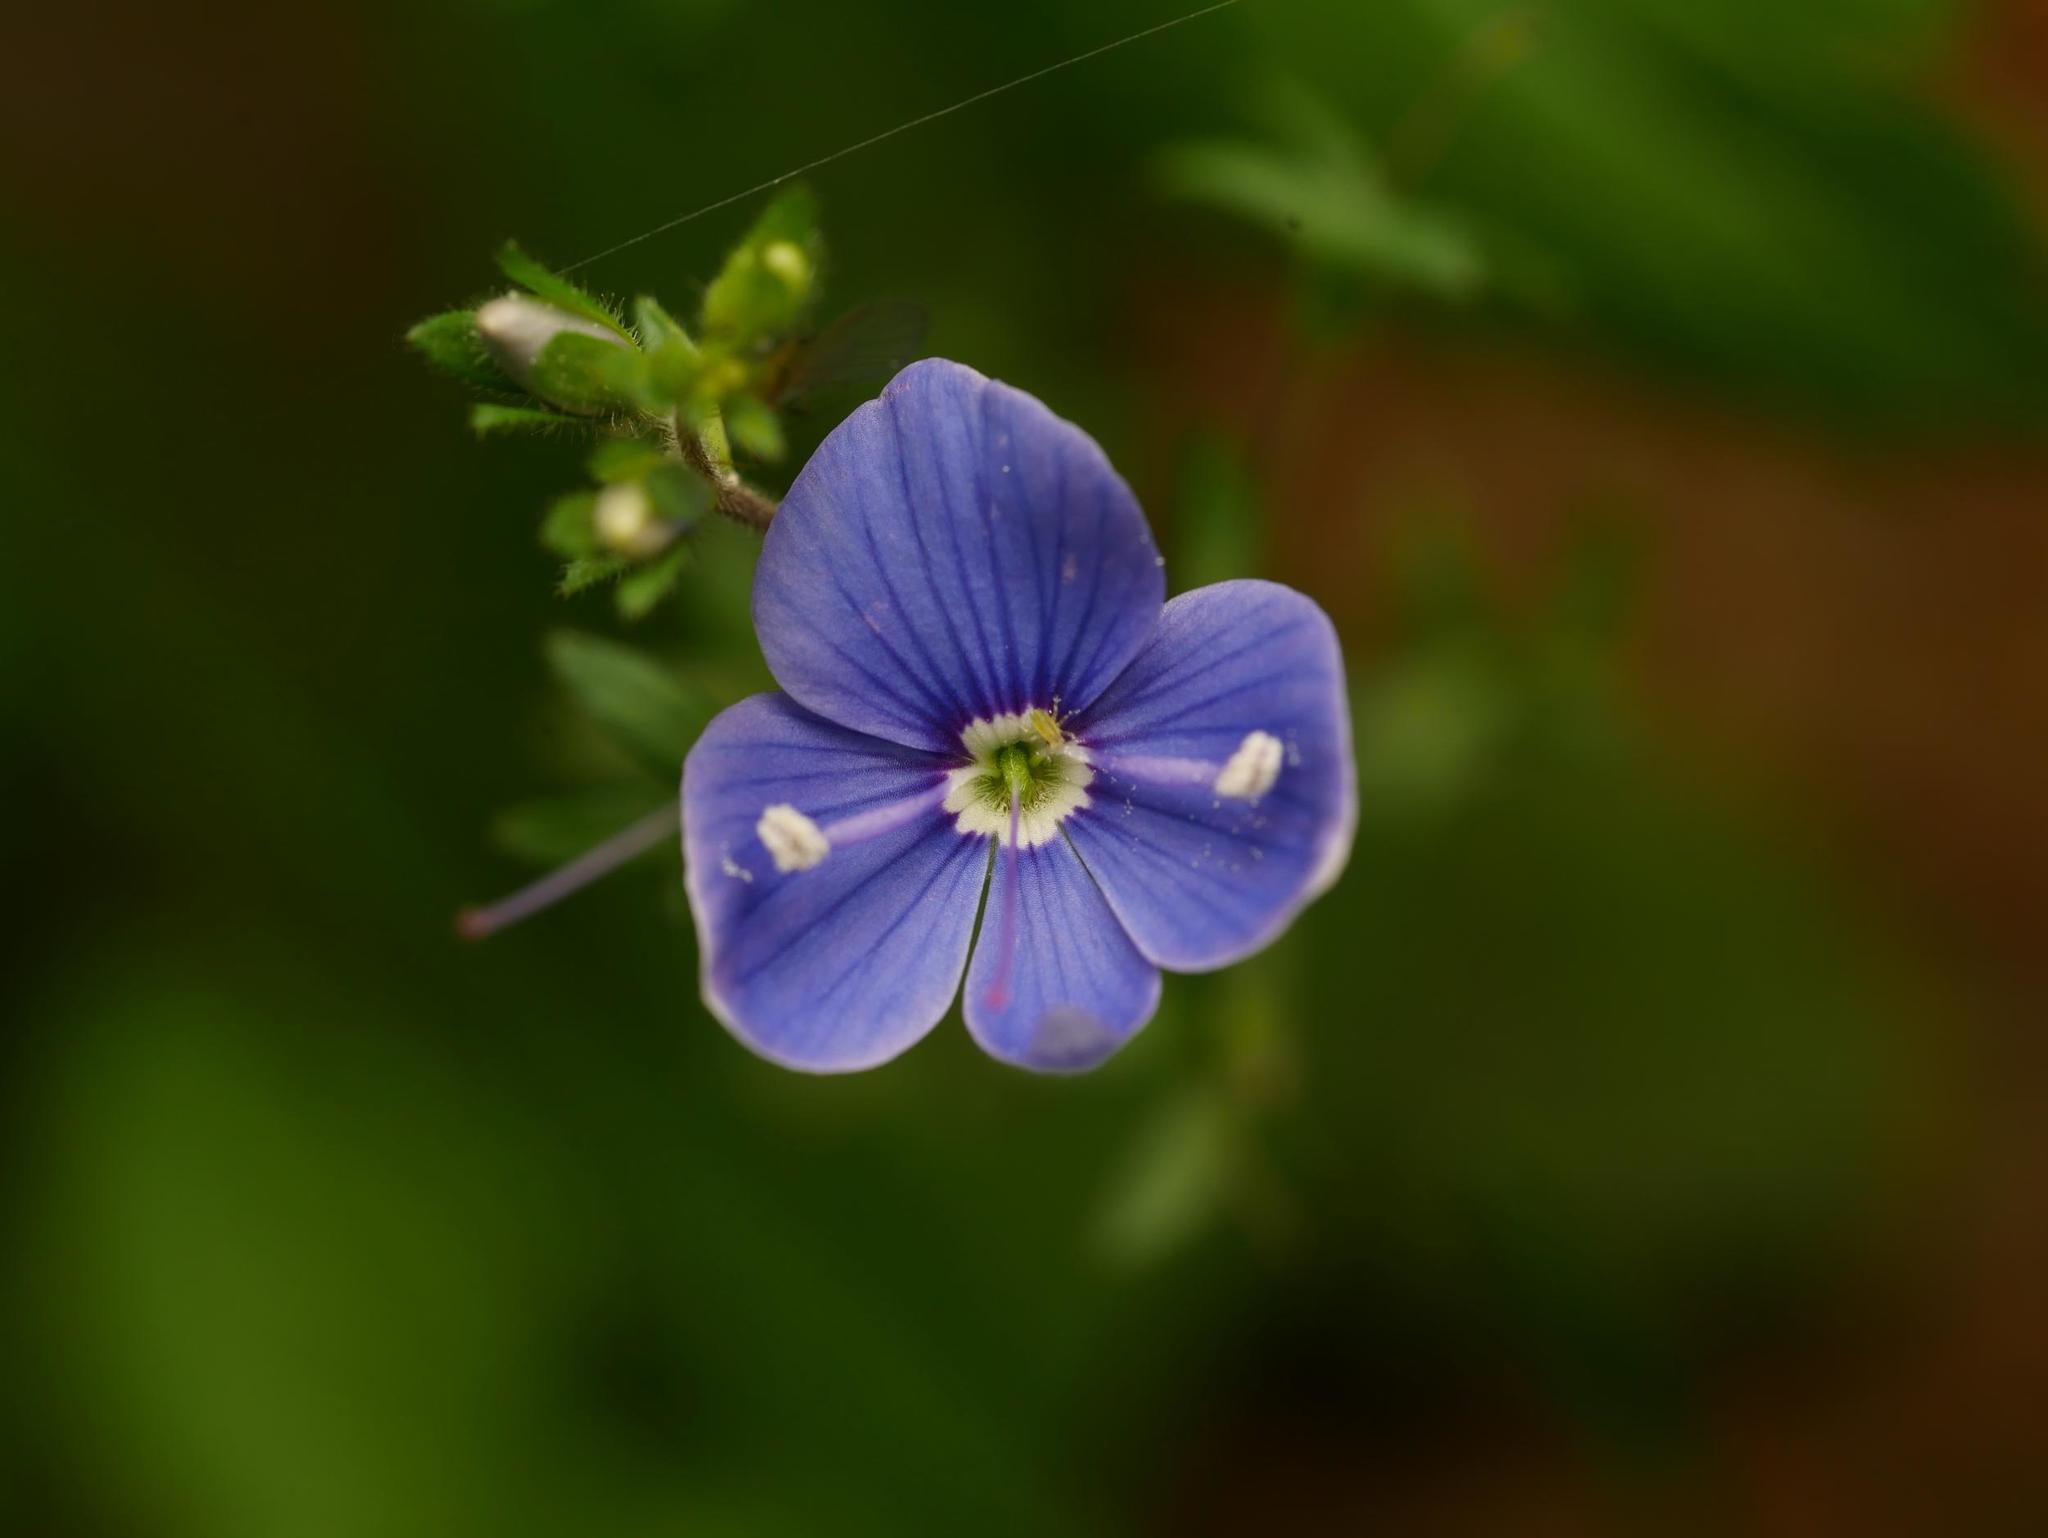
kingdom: Plantae
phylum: Tracheophyta
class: Magnoliopsida
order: Lamiales
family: Plantaginaceae
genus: Veronica
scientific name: Veronica chamaedrys
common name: Germander speedwell
